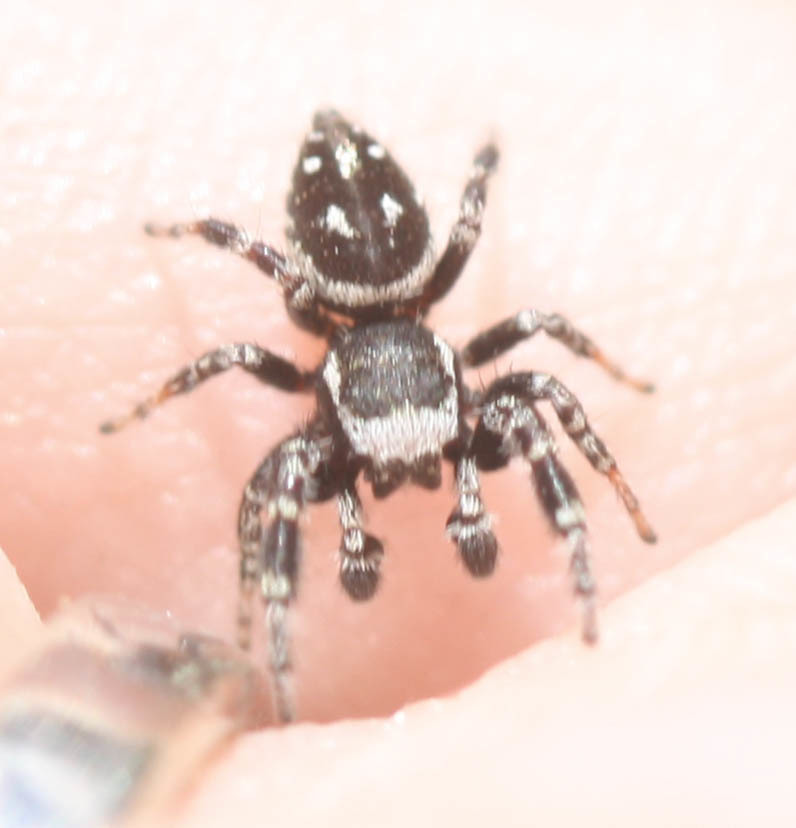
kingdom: Animalia
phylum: Arthropoda
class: Arachnida
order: Araneae
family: Salticidae
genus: Dendryphantes
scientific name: Dendryphantes nigromaculatus
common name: Black-marked jumping spider
